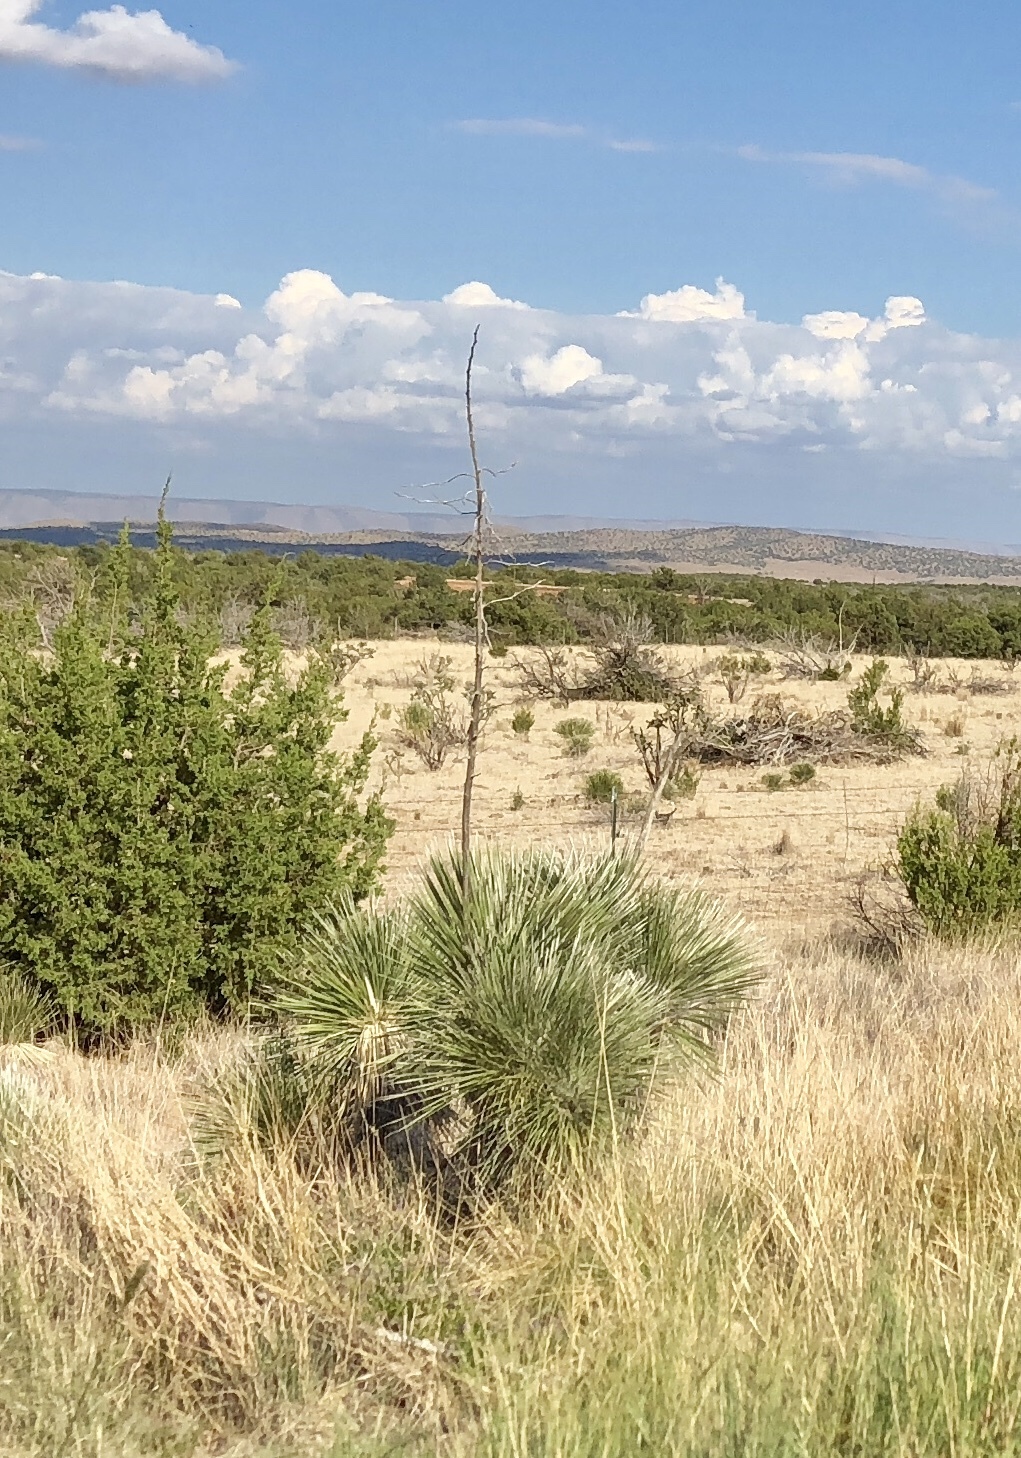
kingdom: Plantae
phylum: Tracheophyta
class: Liliopsida
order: Asparagales
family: Asparagaceae
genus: Yucca
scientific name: Yucca elata
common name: Palmella
